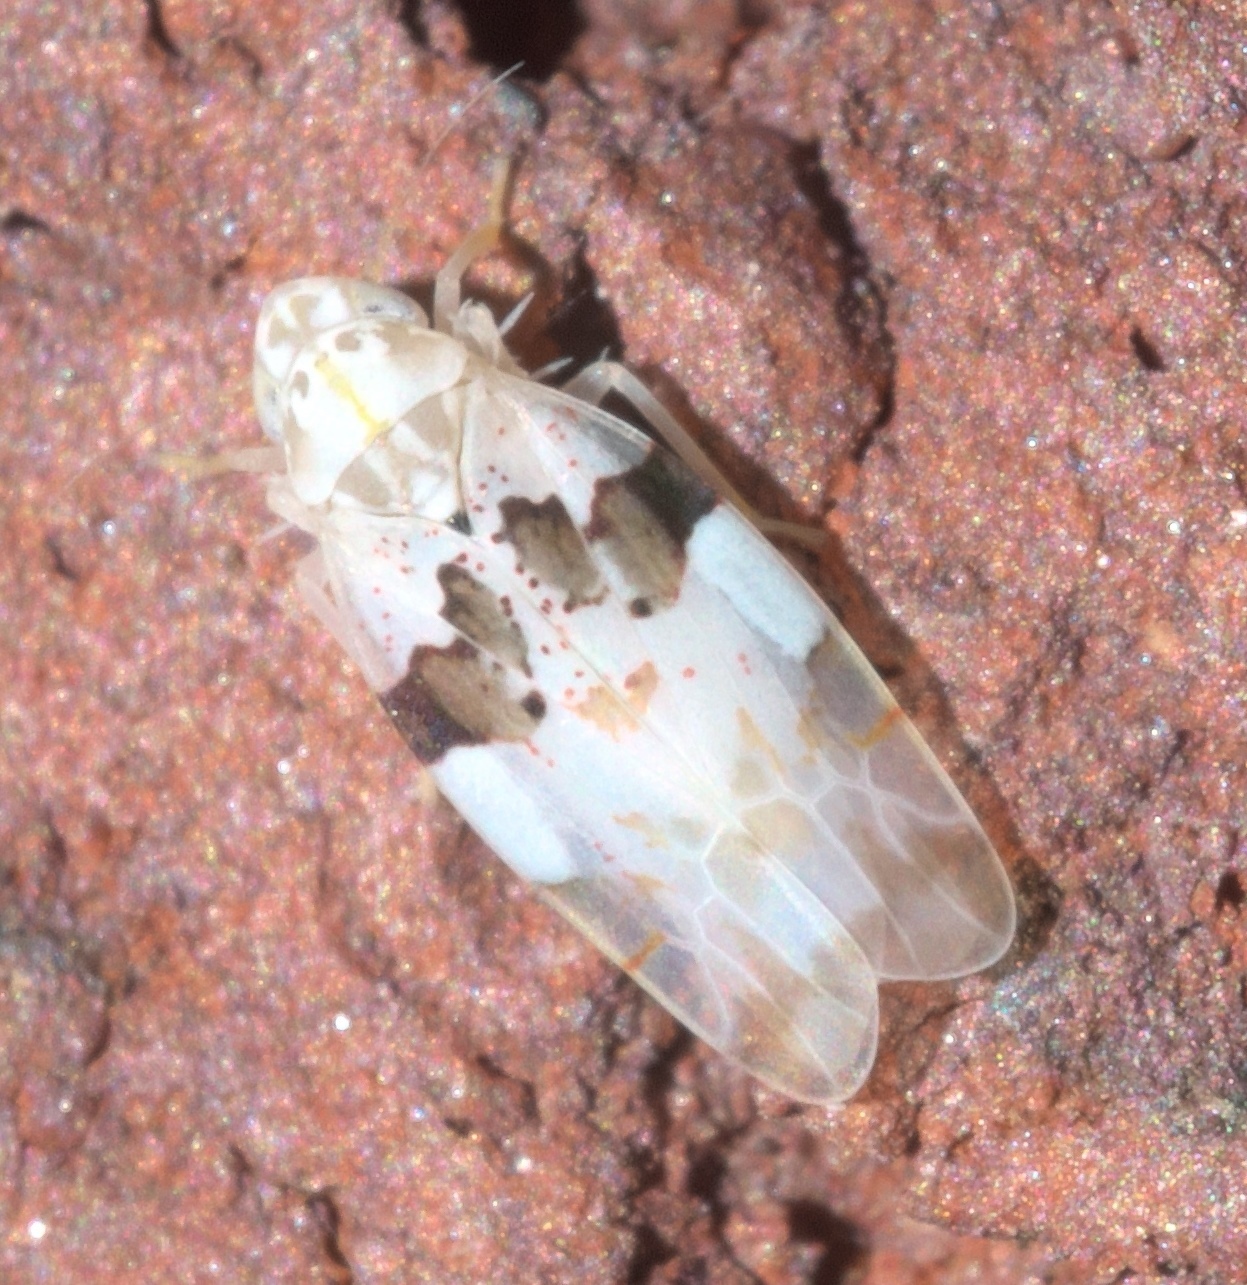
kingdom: Animalia
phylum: Arthropoda
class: Insecta
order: Hemiptera
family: Cicadellidae
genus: Hymetta
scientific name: Hymetta balteata
